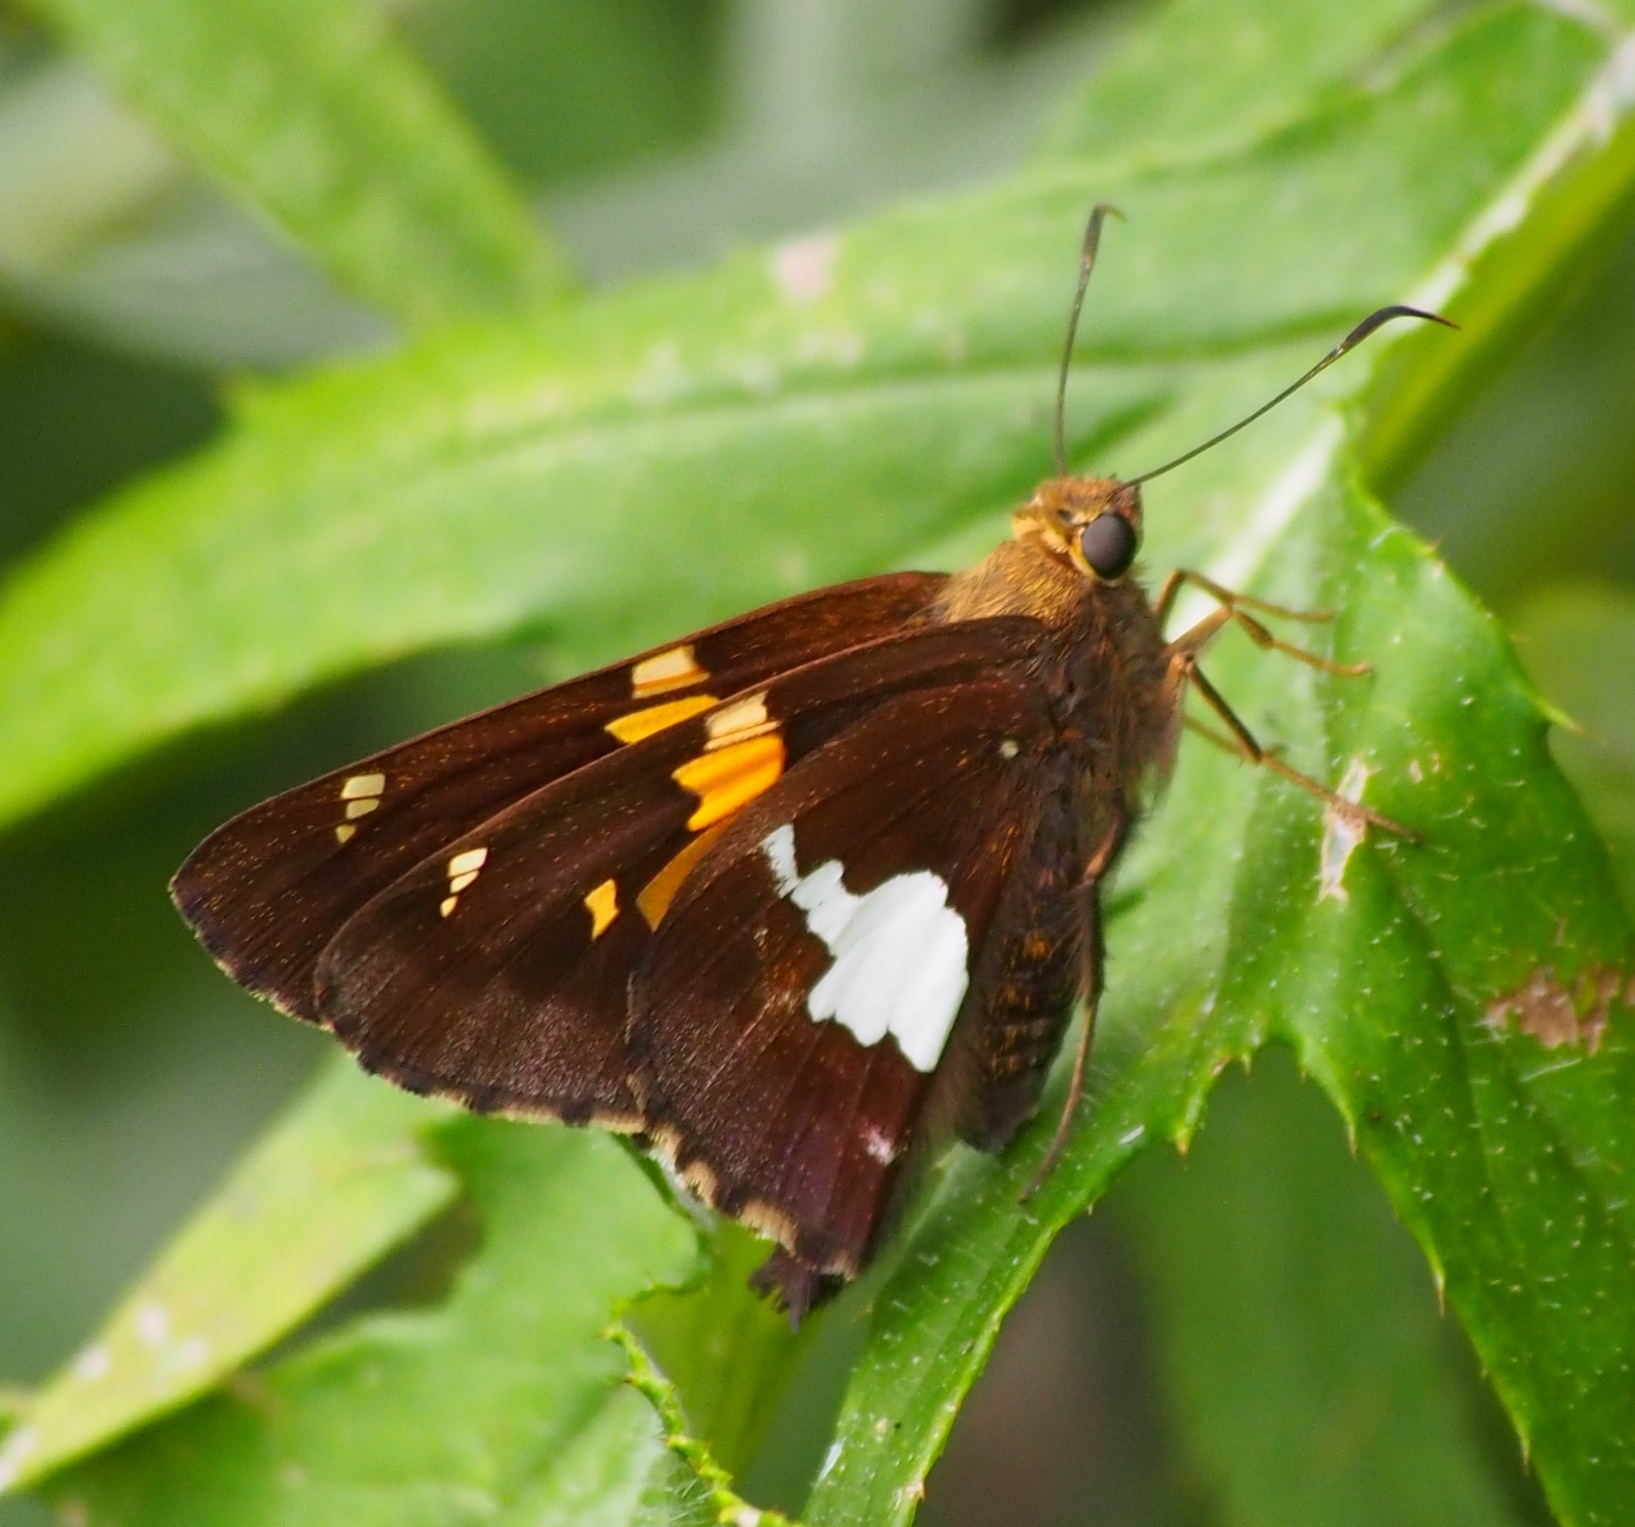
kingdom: Animalia
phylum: Arthropoda
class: Insecta
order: Lepidoptera
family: Hesperiidae
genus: Epargyreus
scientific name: Epargyreus clarus
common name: Silver-spotted skipper
